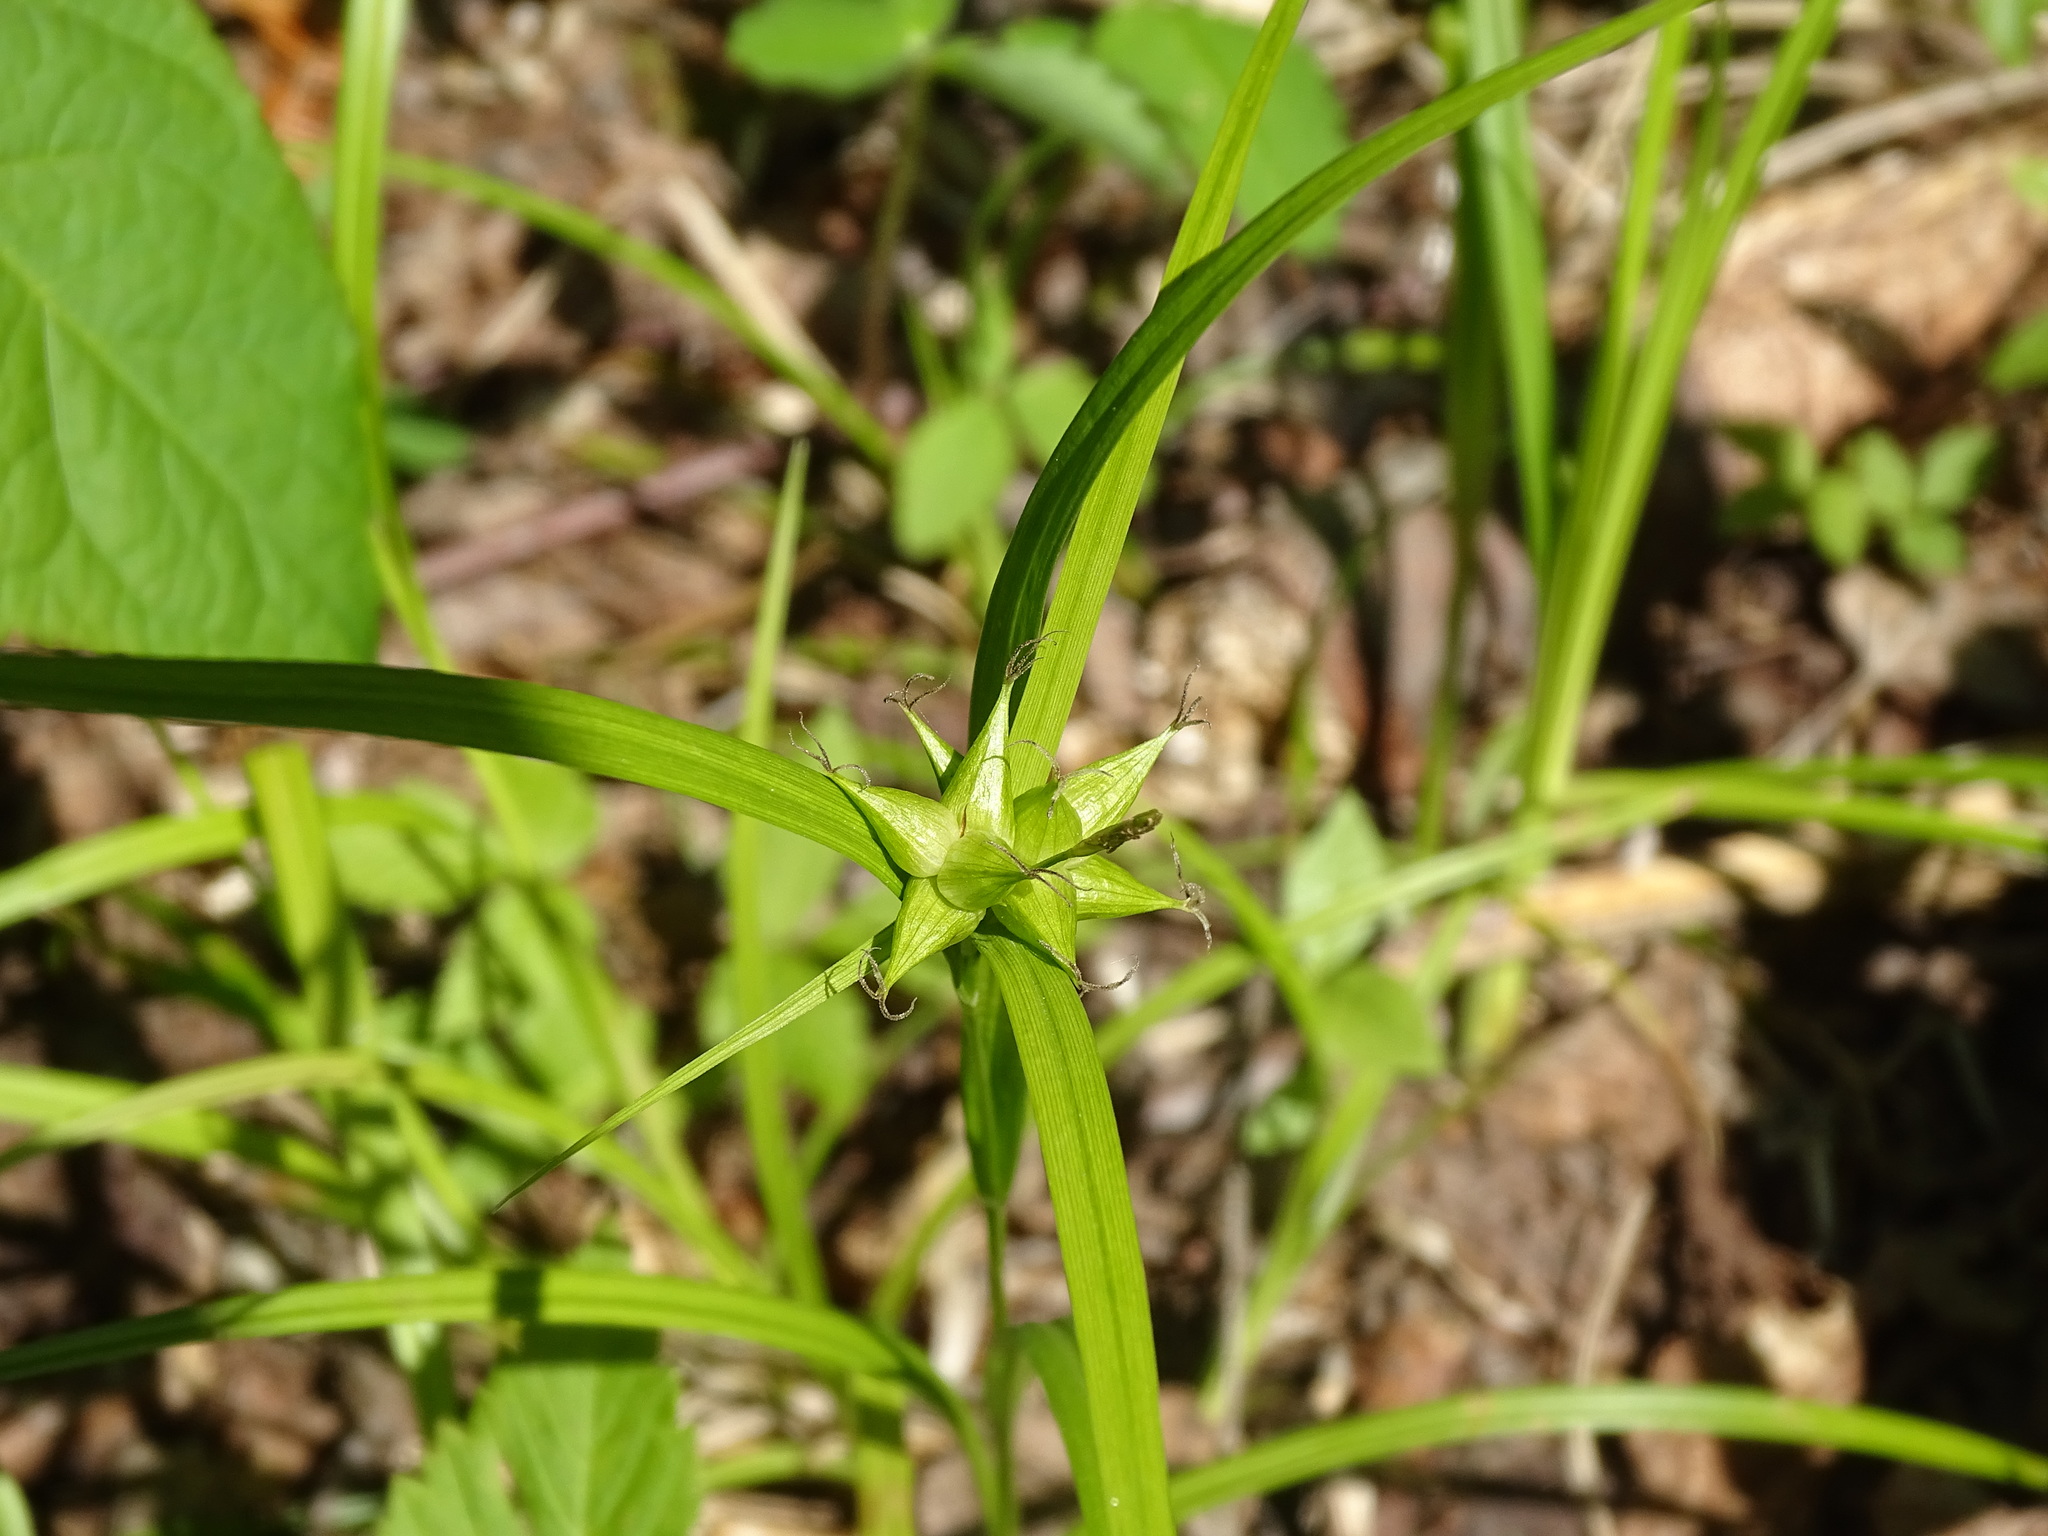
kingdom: Plantae
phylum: Tracheophyta
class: Liliopsida
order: Poales
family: Cyperaceae
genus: Carex
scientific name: Carex intumescens
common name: Greater bladder sedge
